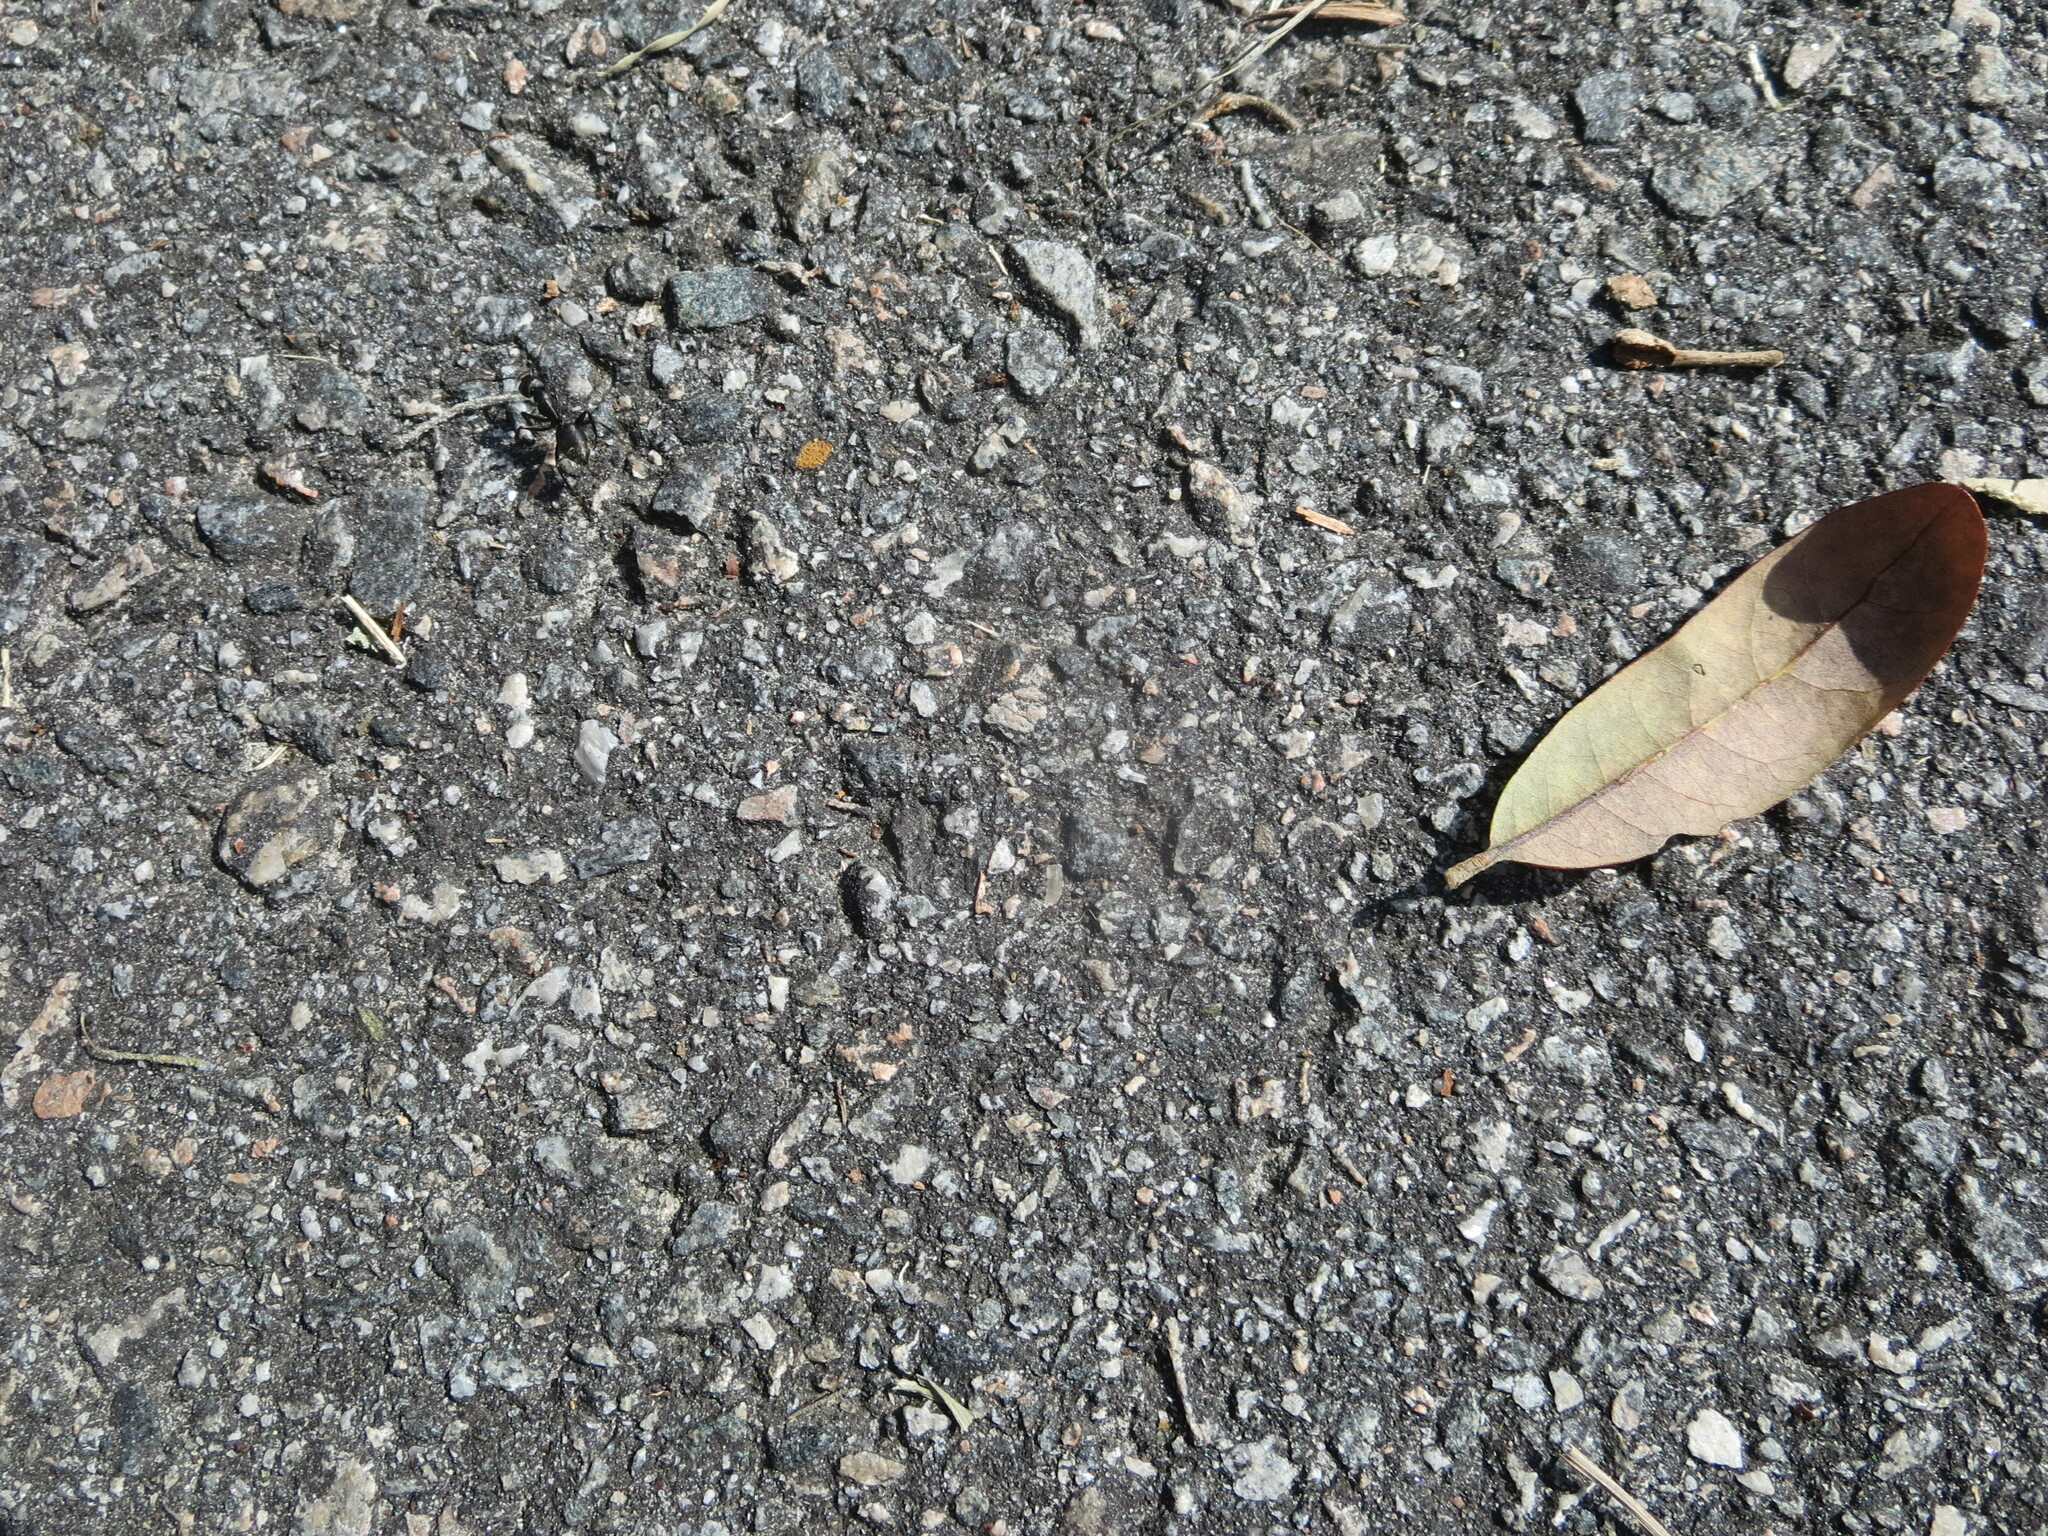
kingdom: Animalia
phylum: Arthropoda
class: Insecta
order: Hymenoptera
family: Formicidae
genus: Camponotus
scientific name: Camponotus pennsylvanicus
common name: Black carpenter ant
